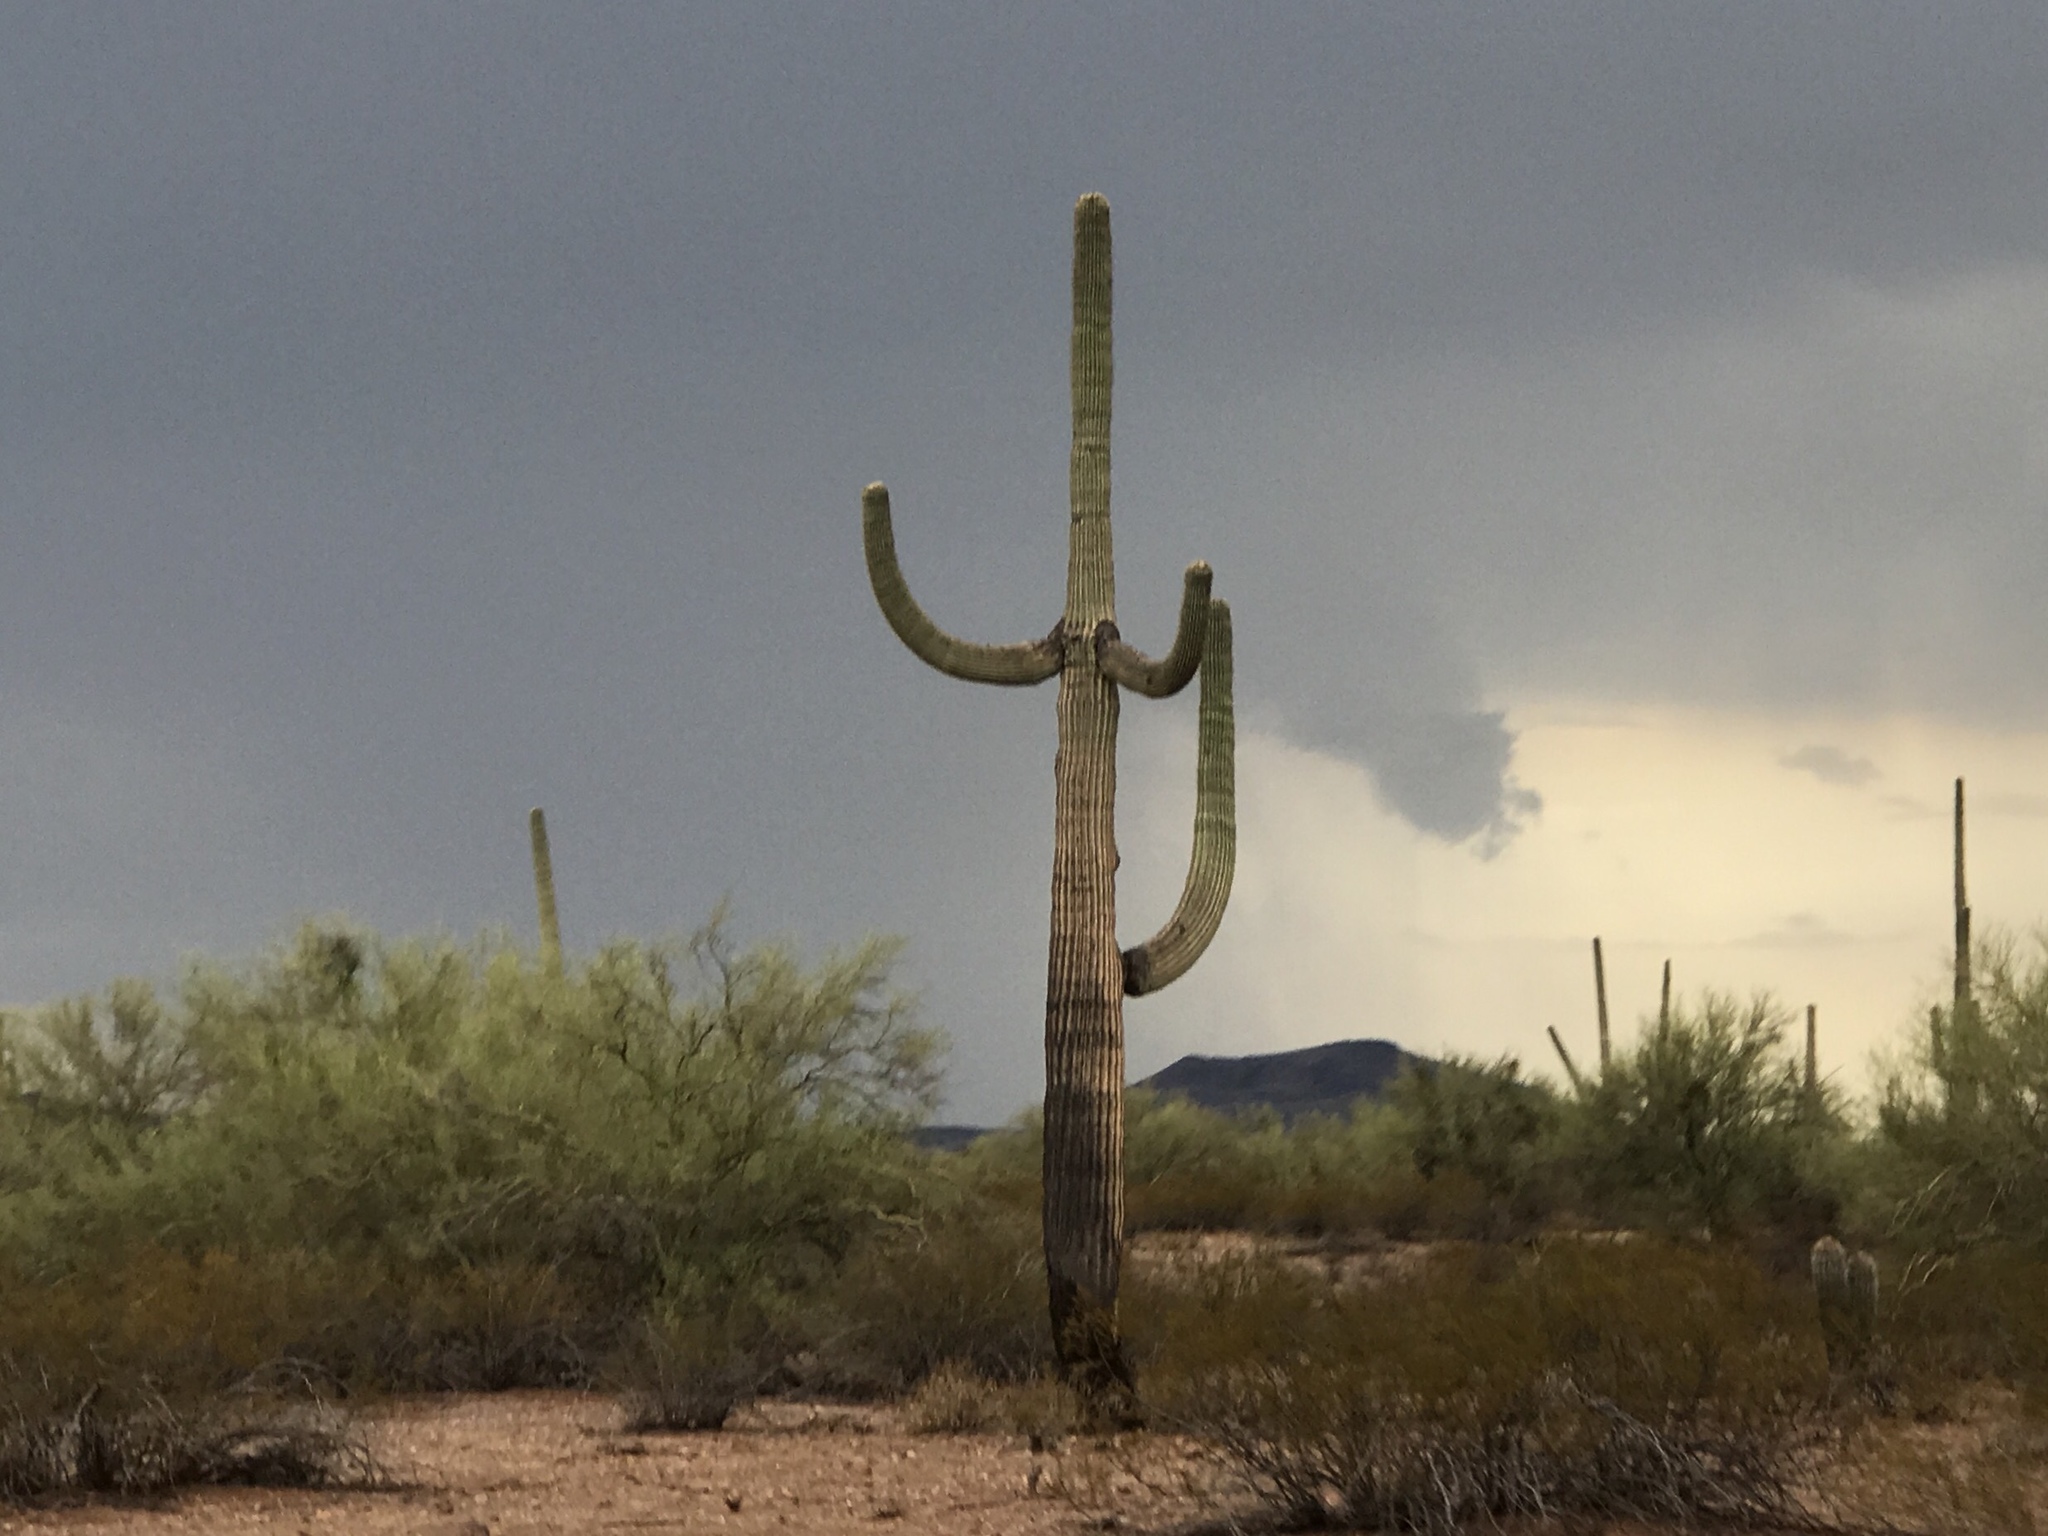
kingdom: Plantae
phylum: Tracheophyta
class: Magnoliopsida
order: Caryophyllales
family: Cactaceae
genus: Carnegiea
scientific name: Carnegiea gigantea
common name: Saguaro
